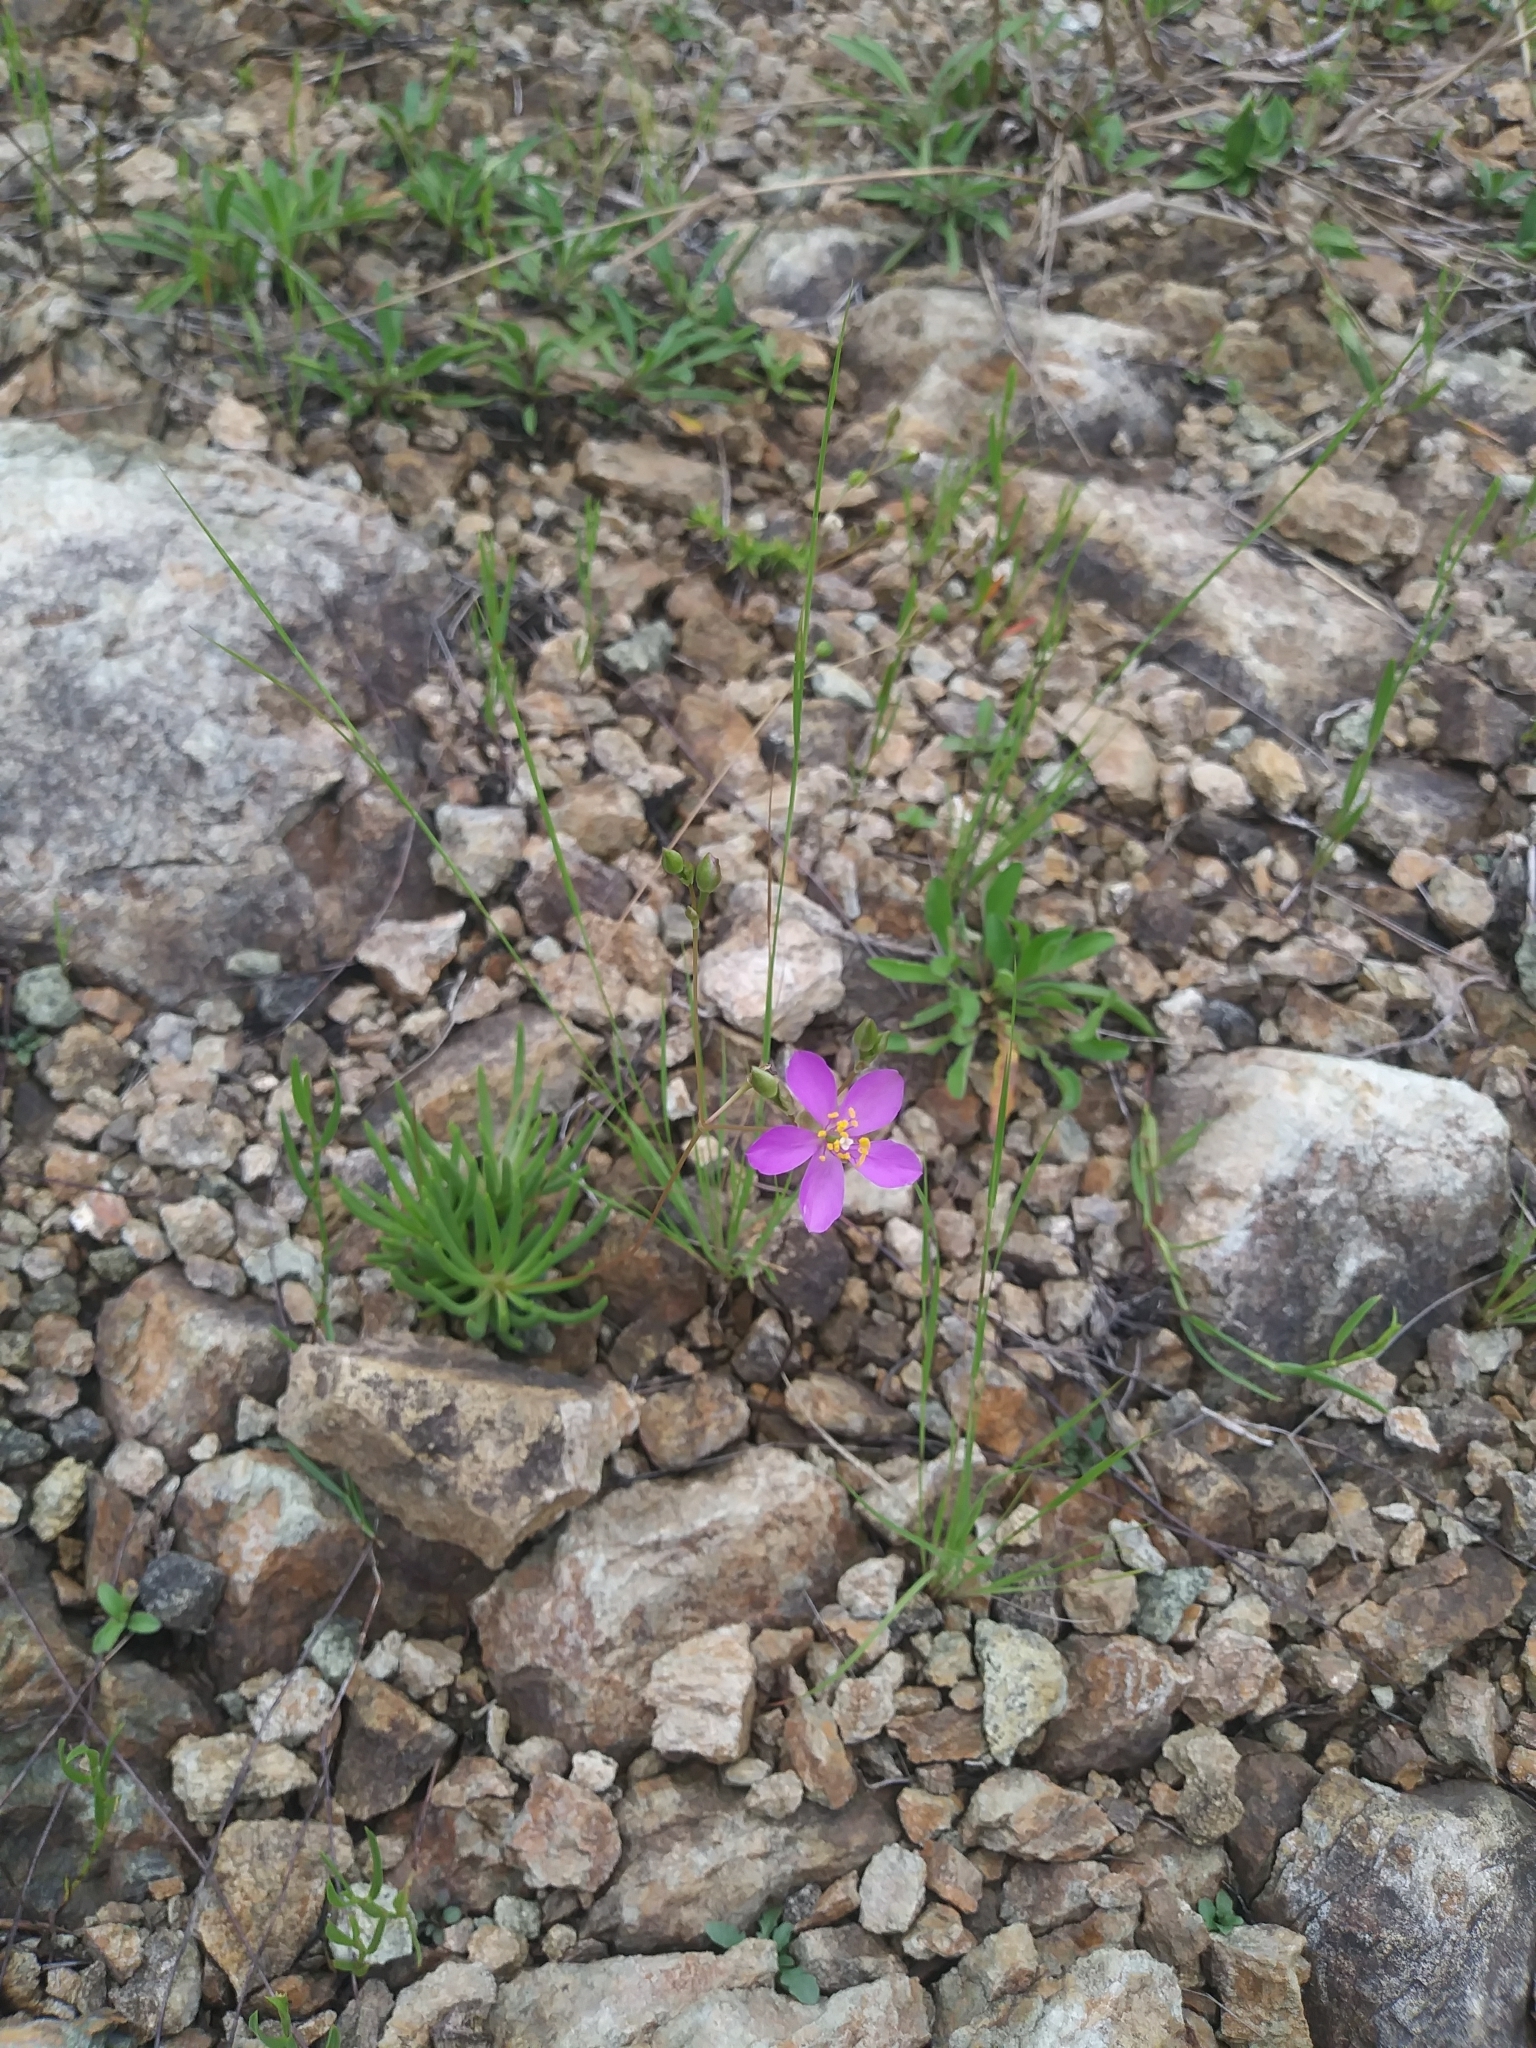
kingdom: Plantae
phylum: Tracheophyta
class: Magnoliopsida
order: Caryophyllales
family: Montiaceae
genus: Phemeranthus
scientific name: Phemeranthus teretifolius
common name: Quill fameflower
